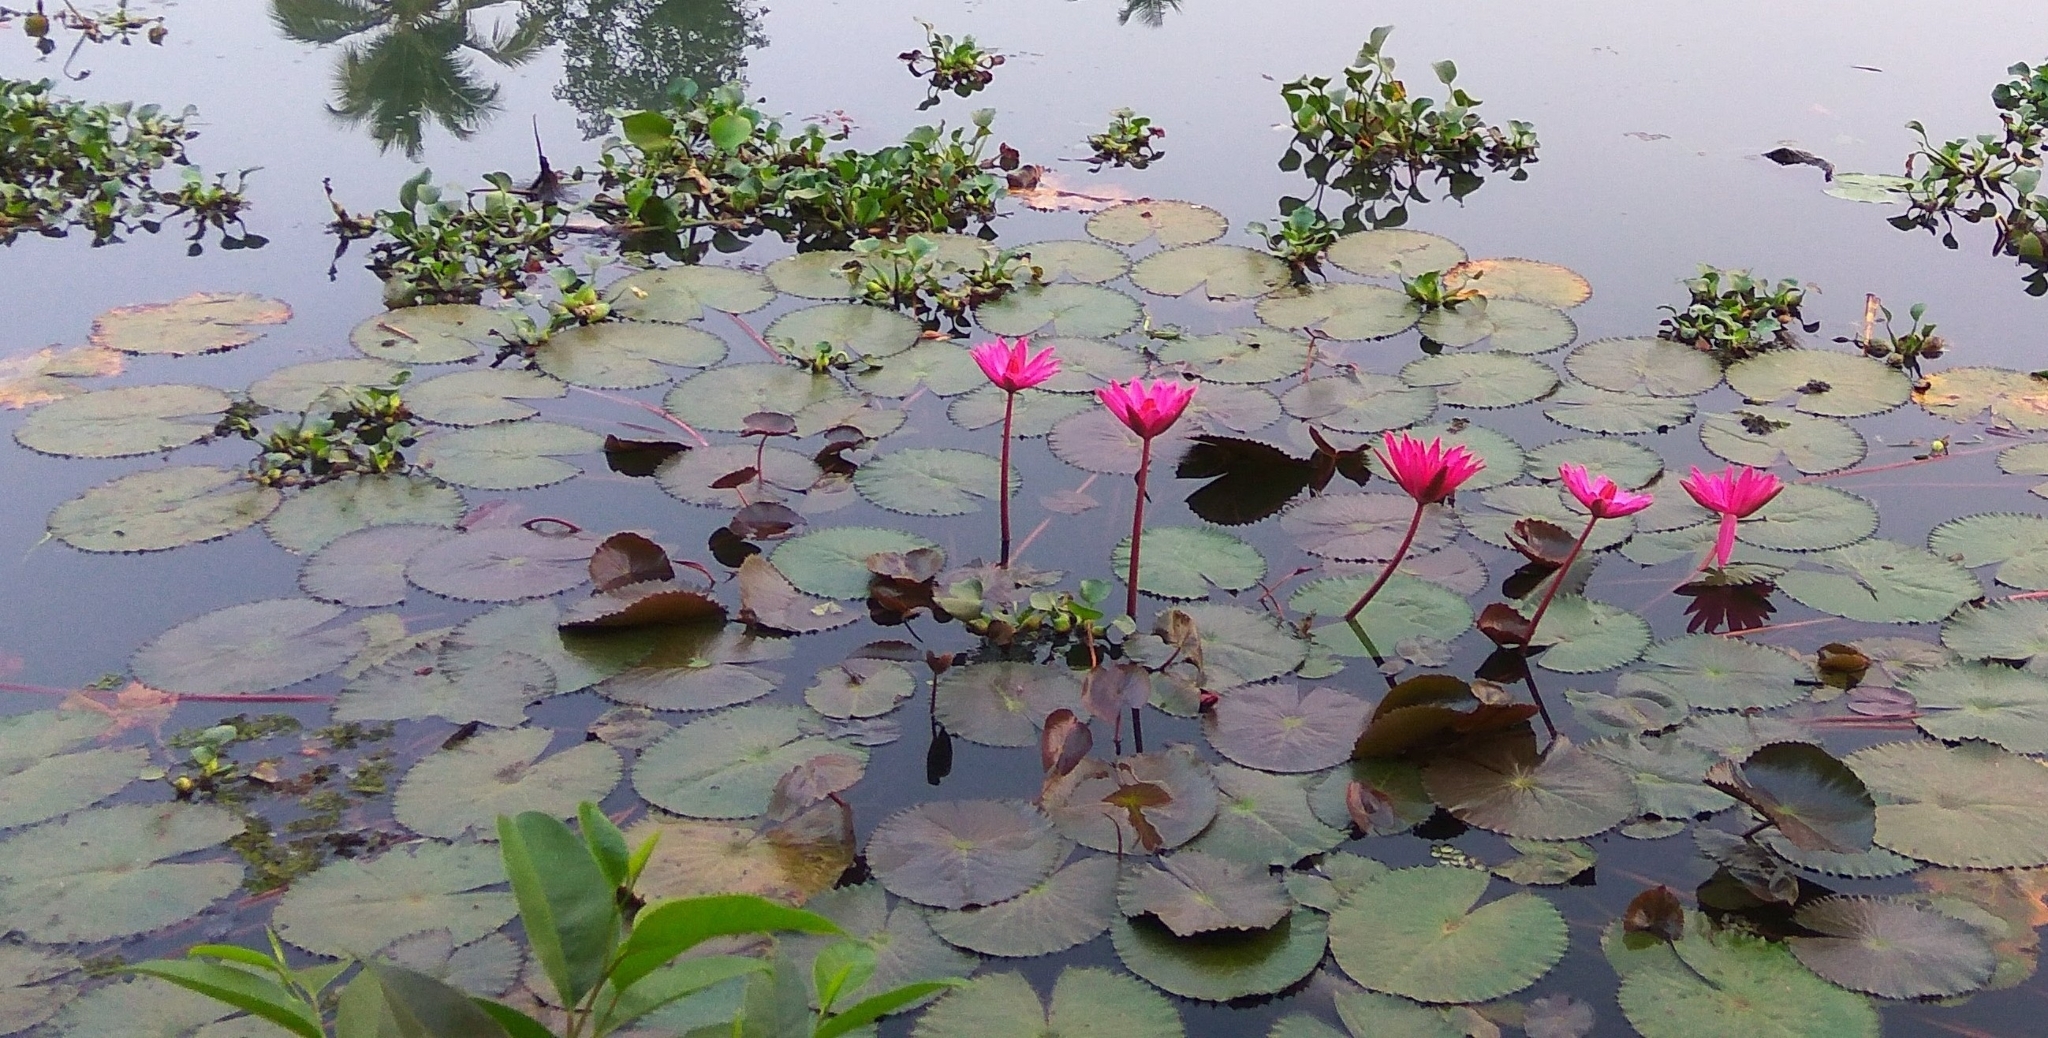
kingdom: Plantae
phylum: Tracheophyta
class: Magnoliopsida
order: Nymphaeales
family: Nymphaeaceae
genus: Nymphaea
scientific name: Nymphaea rubra
